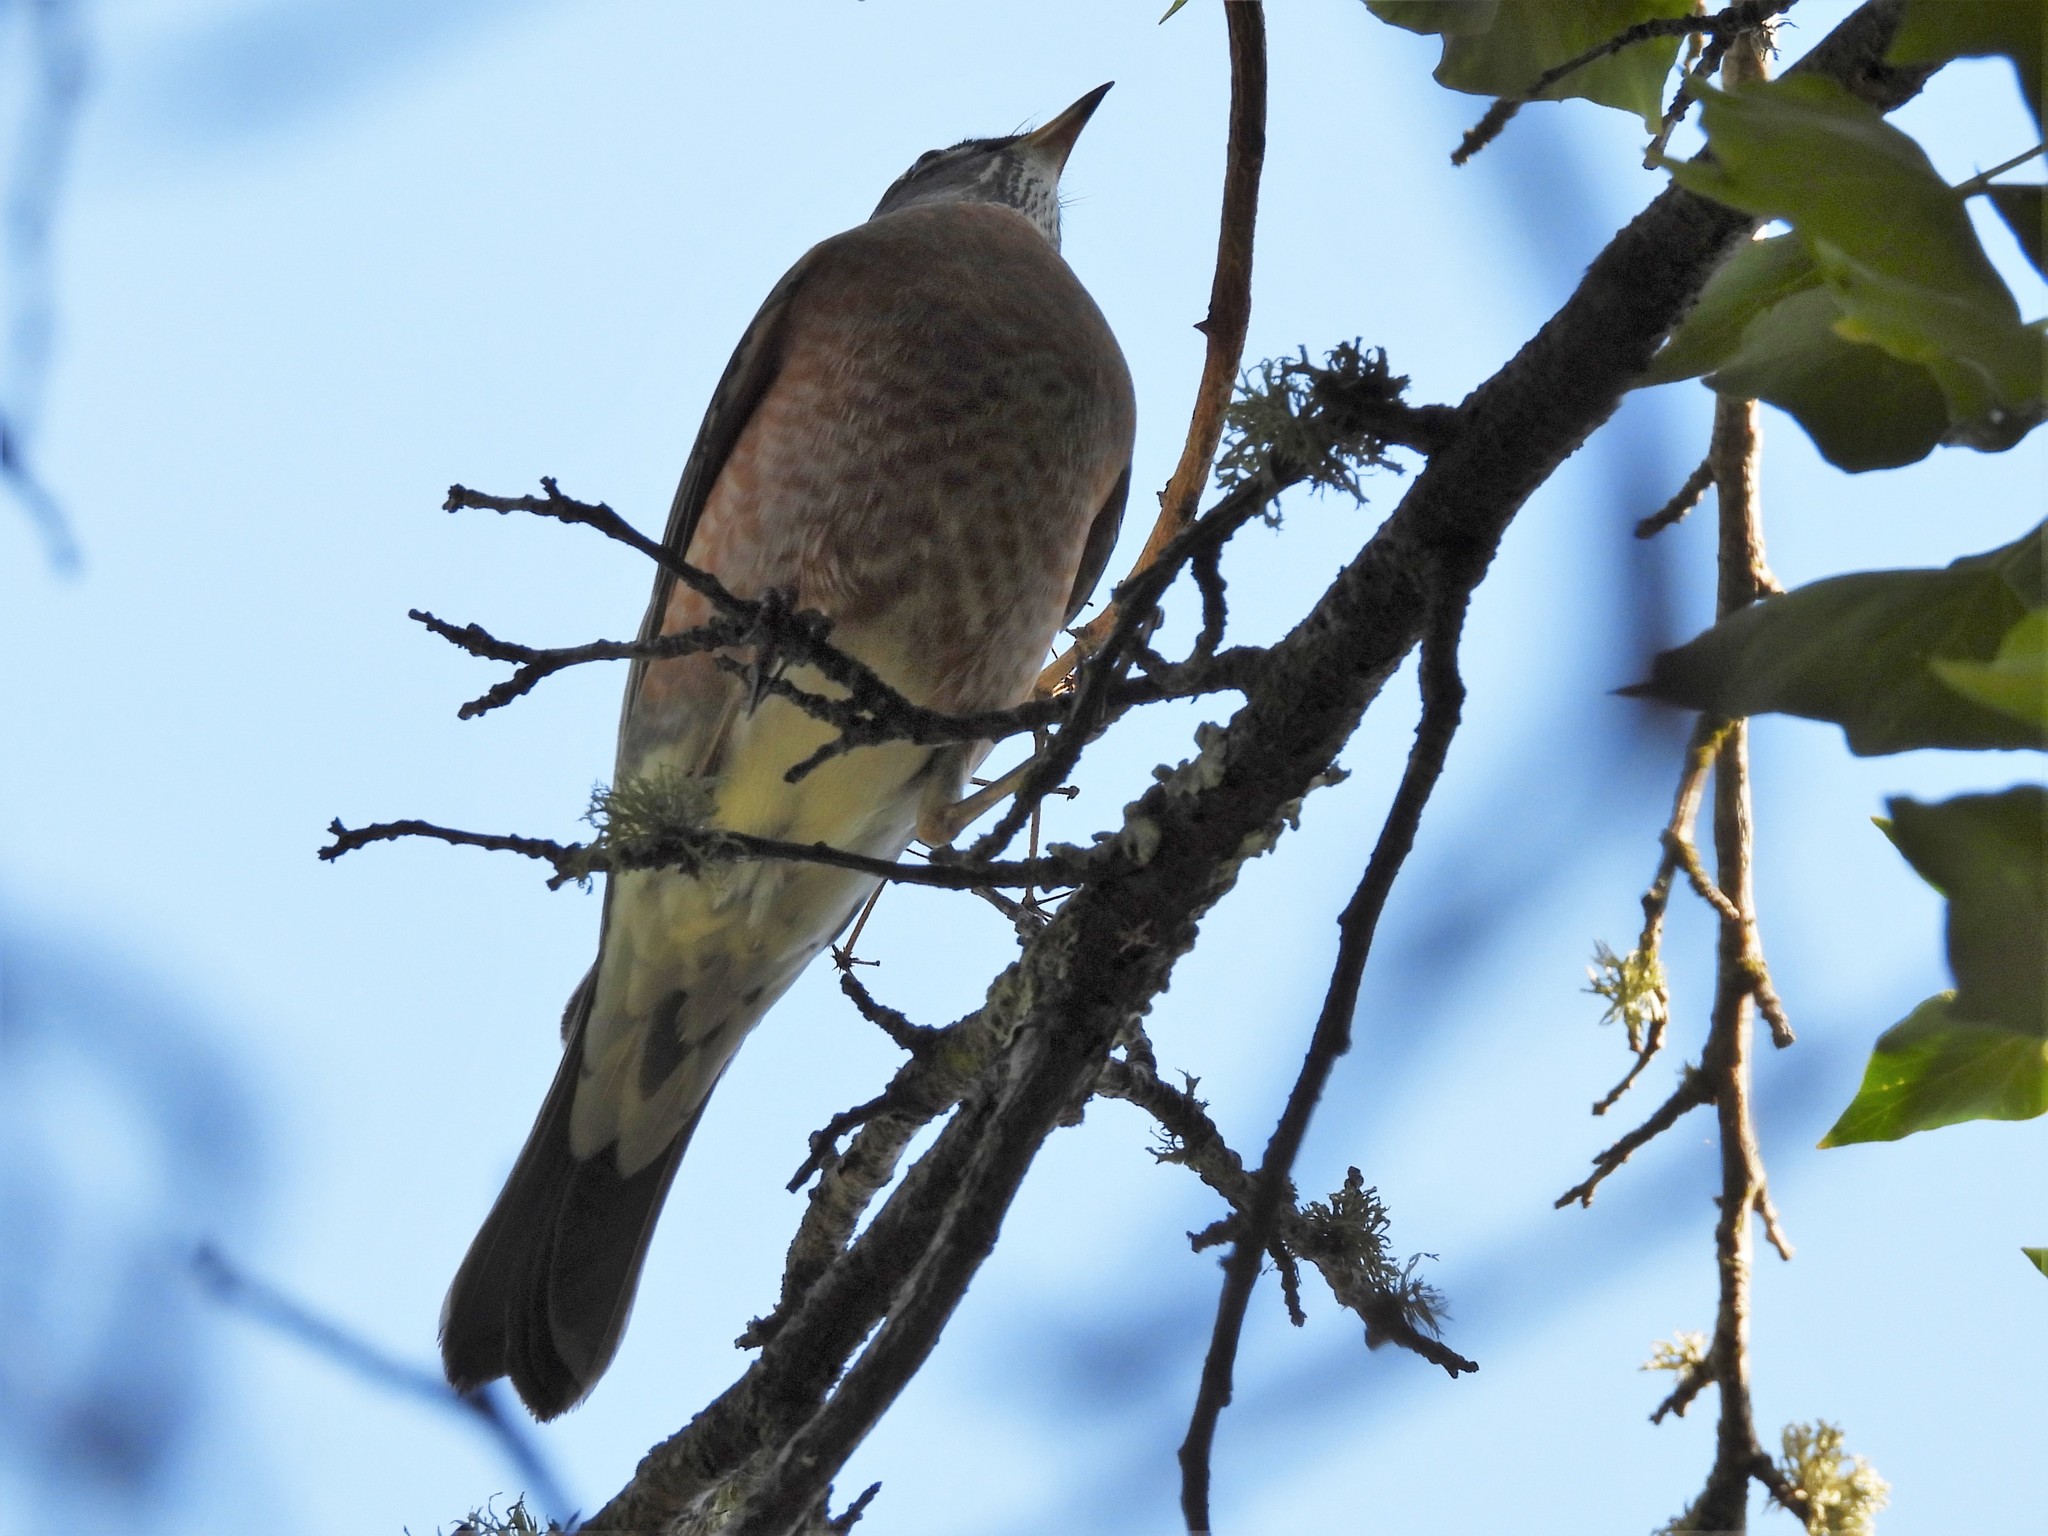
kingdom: Animalia
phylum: Chordata
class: Aves
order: Passeriformes
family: Turdidae
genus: Turdus
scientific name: Turdus migratorius
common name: American robin
